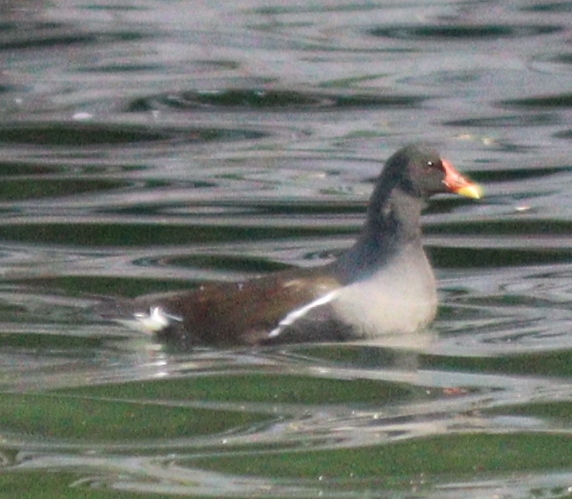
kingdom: Animalia
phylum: Chordata
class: Aves
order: Gruiformes
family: Rallidae
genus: Gallinula
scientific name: Gallinula chloropus
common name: Common moorhen
